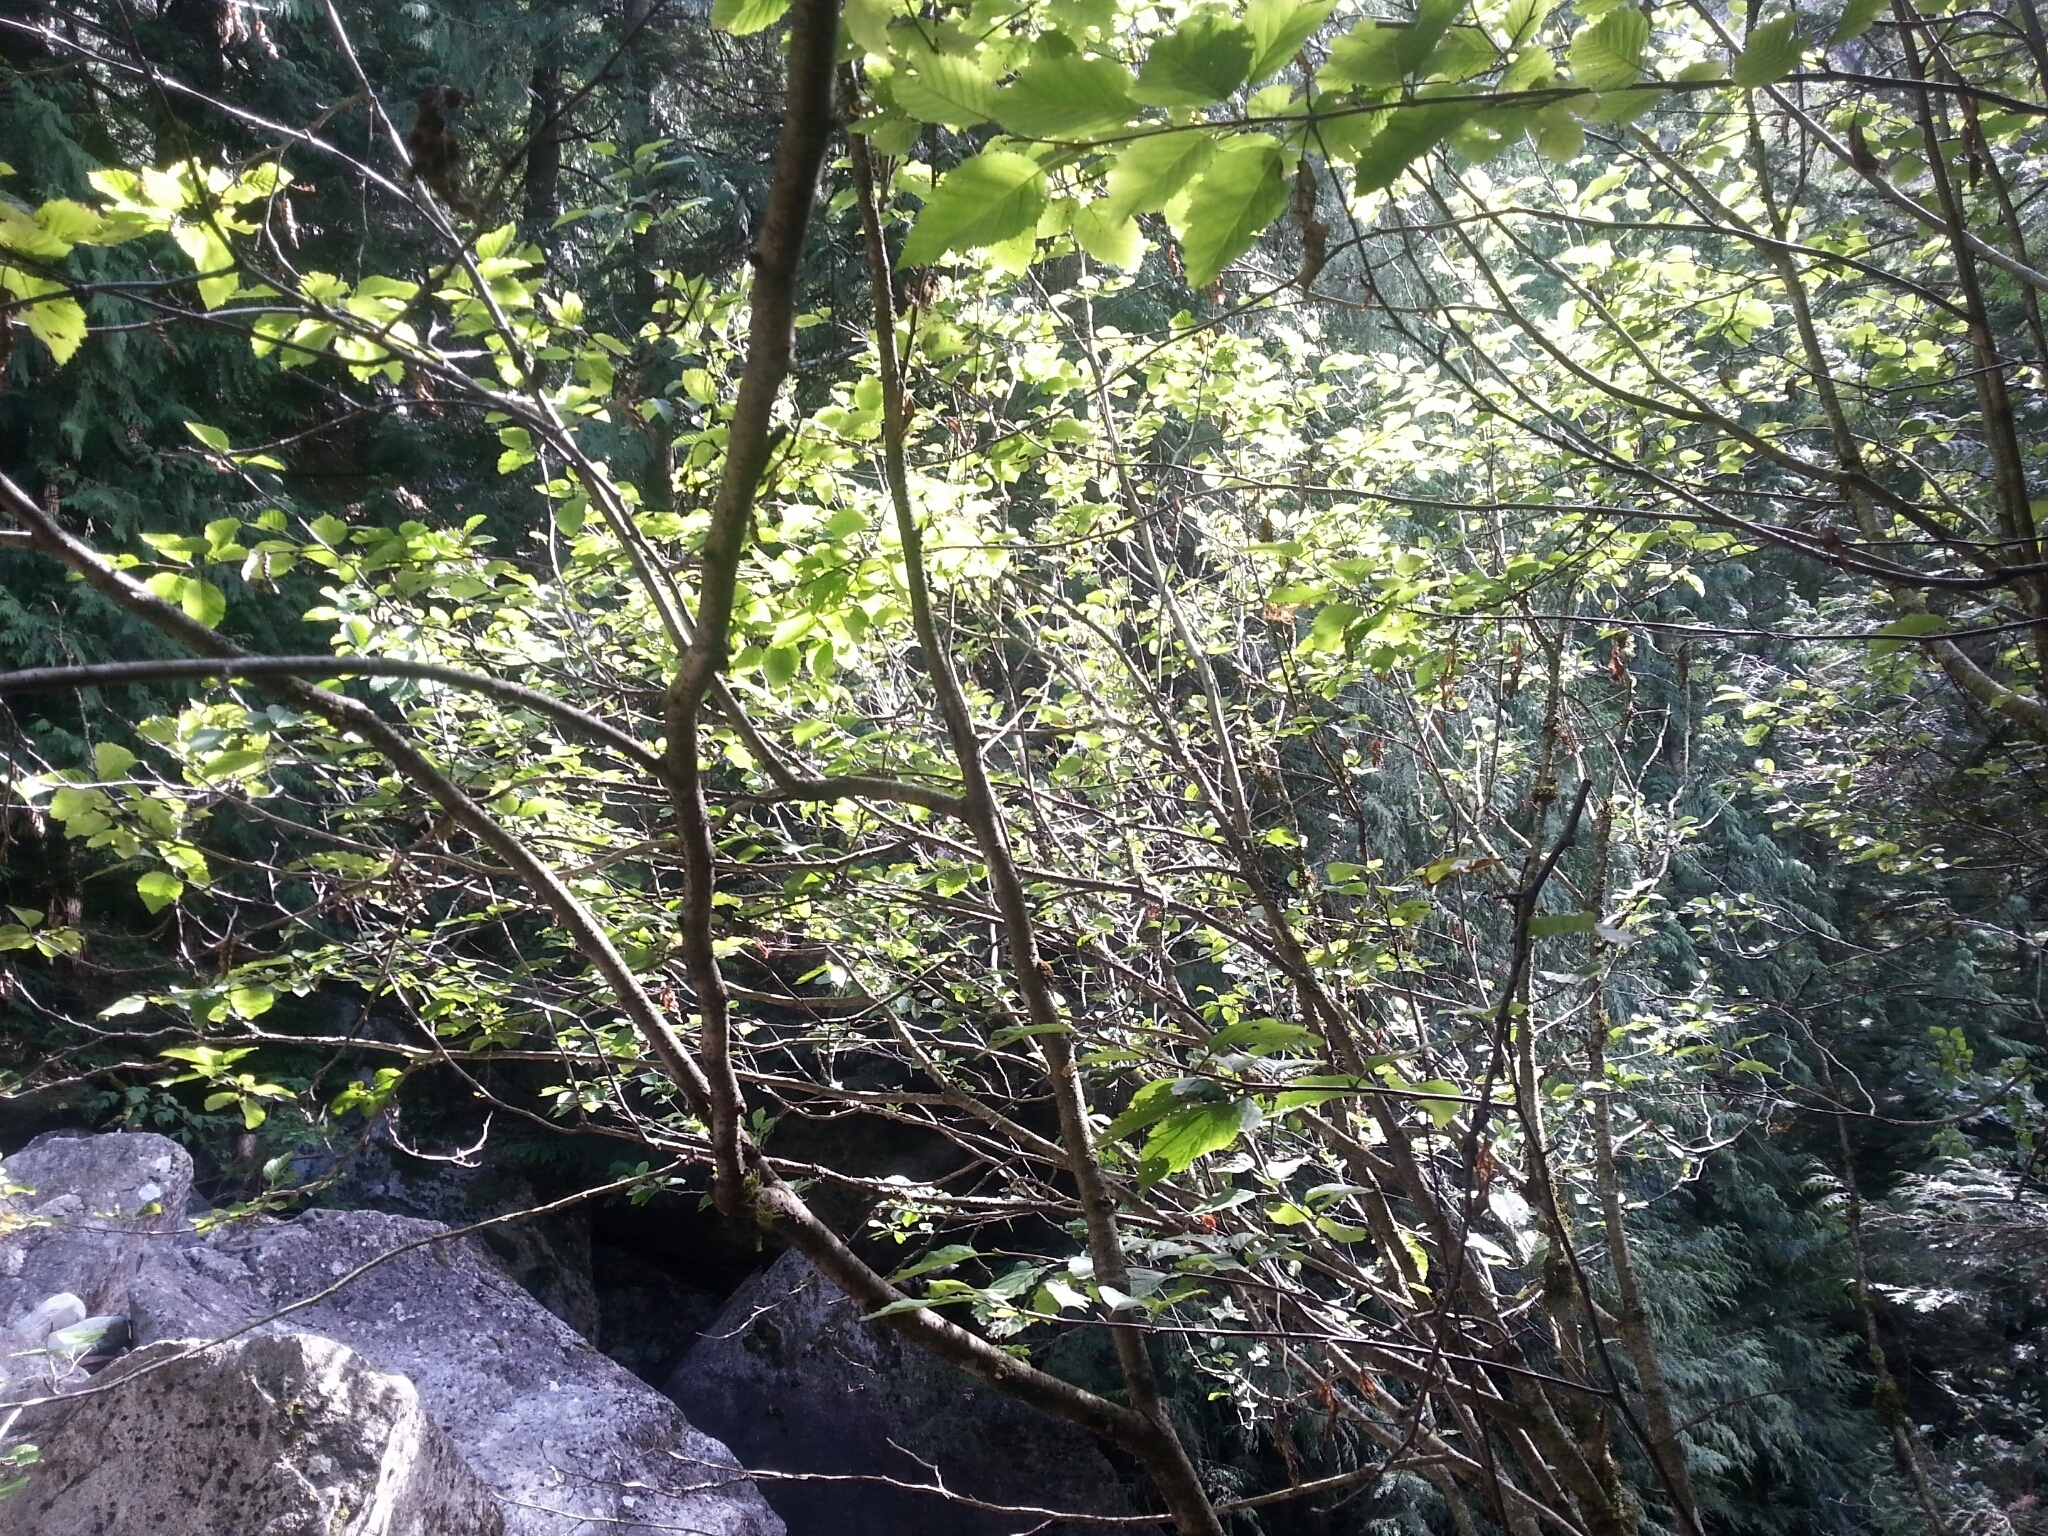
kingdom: Plantae
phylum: Tracheophyta
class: Magnoliopsida
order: Fagales
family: Betulaceae
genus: Alnus
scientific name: Alnus alnobetula
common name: Green alder
